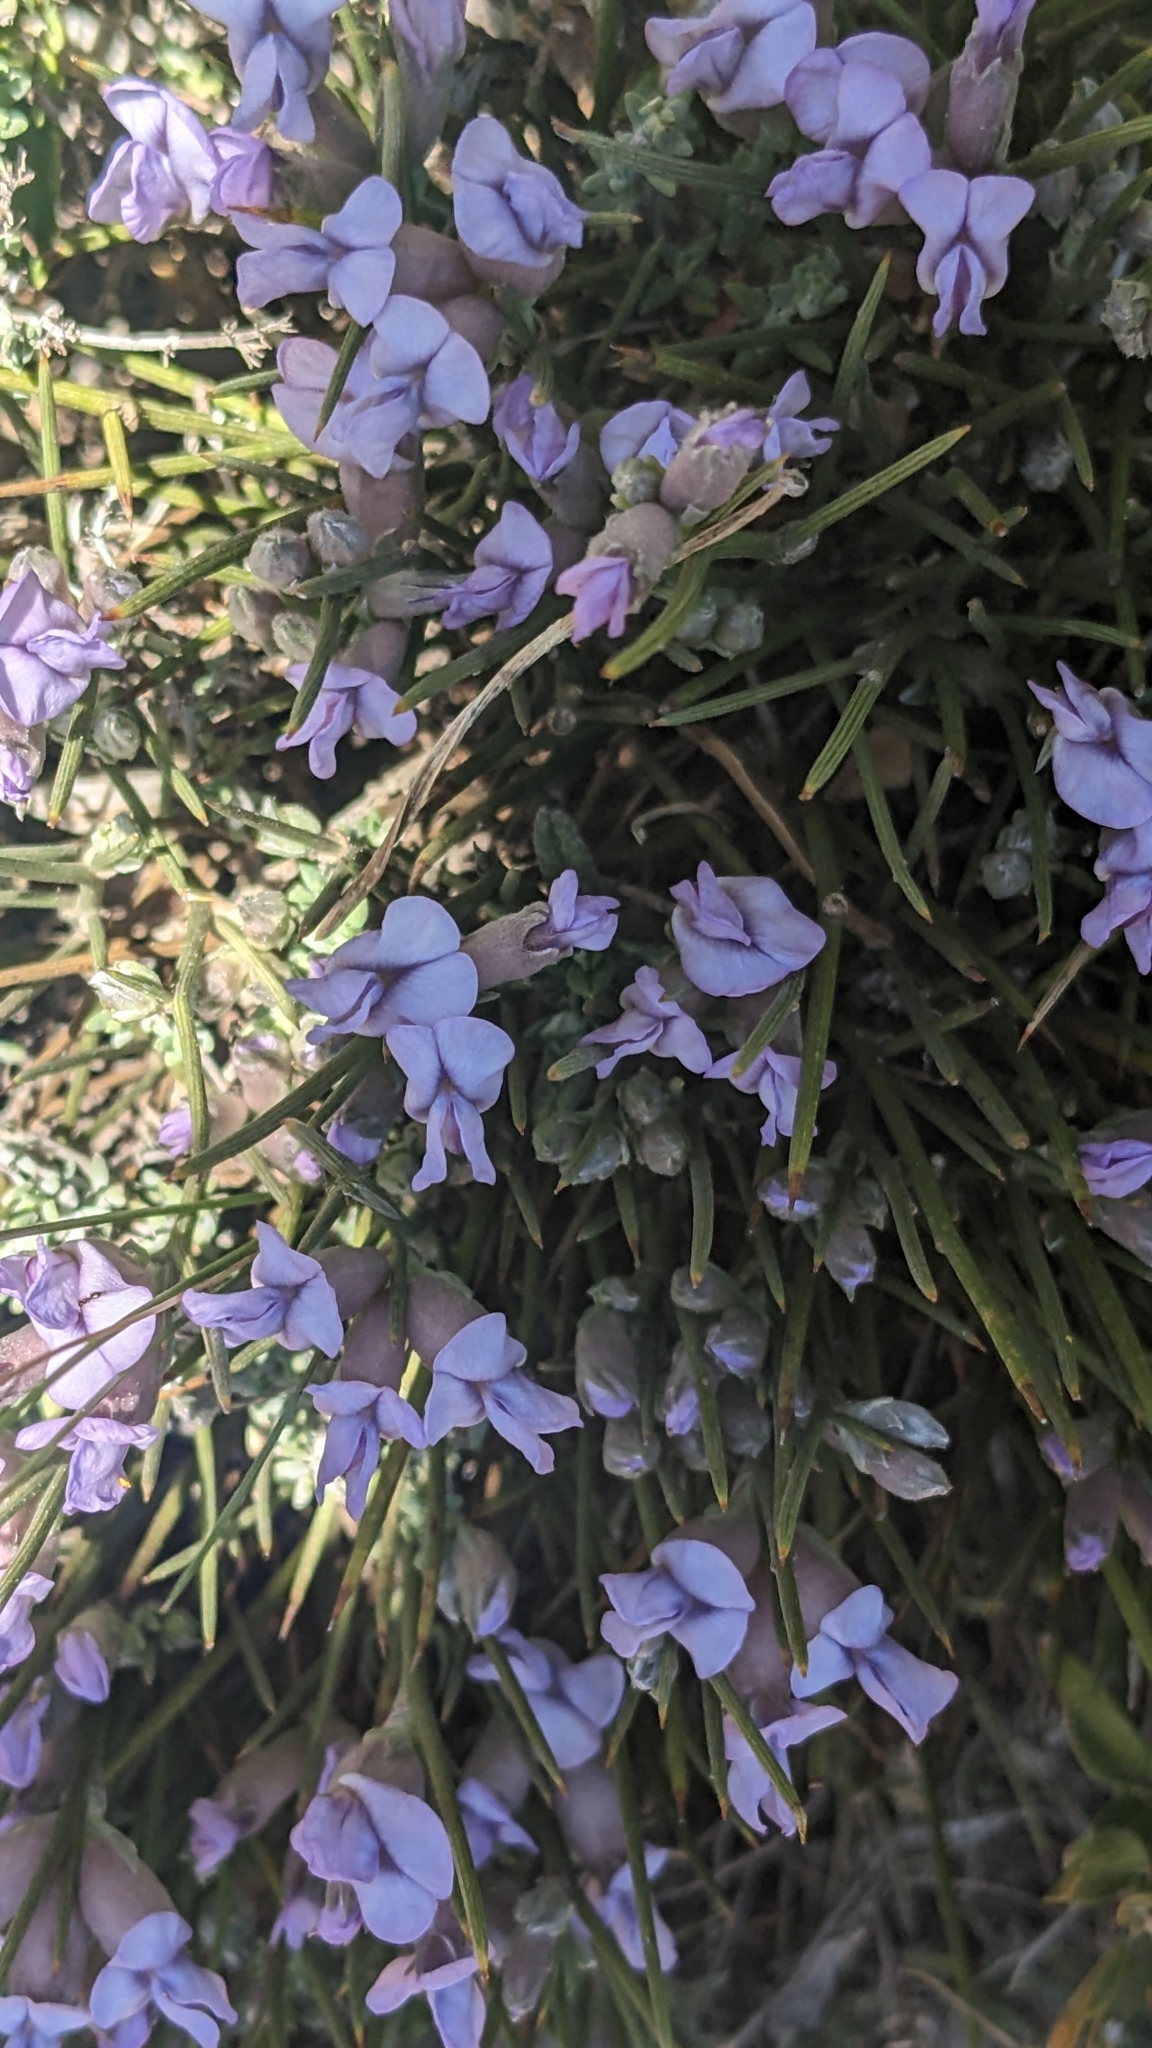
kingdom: Plantae
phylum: Tracheophyta
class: Magnoliopsida
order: Fabales
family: Fabaceae
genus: Erinacea
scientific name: Erinacea anthyllis
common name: Hedgehog-broom
